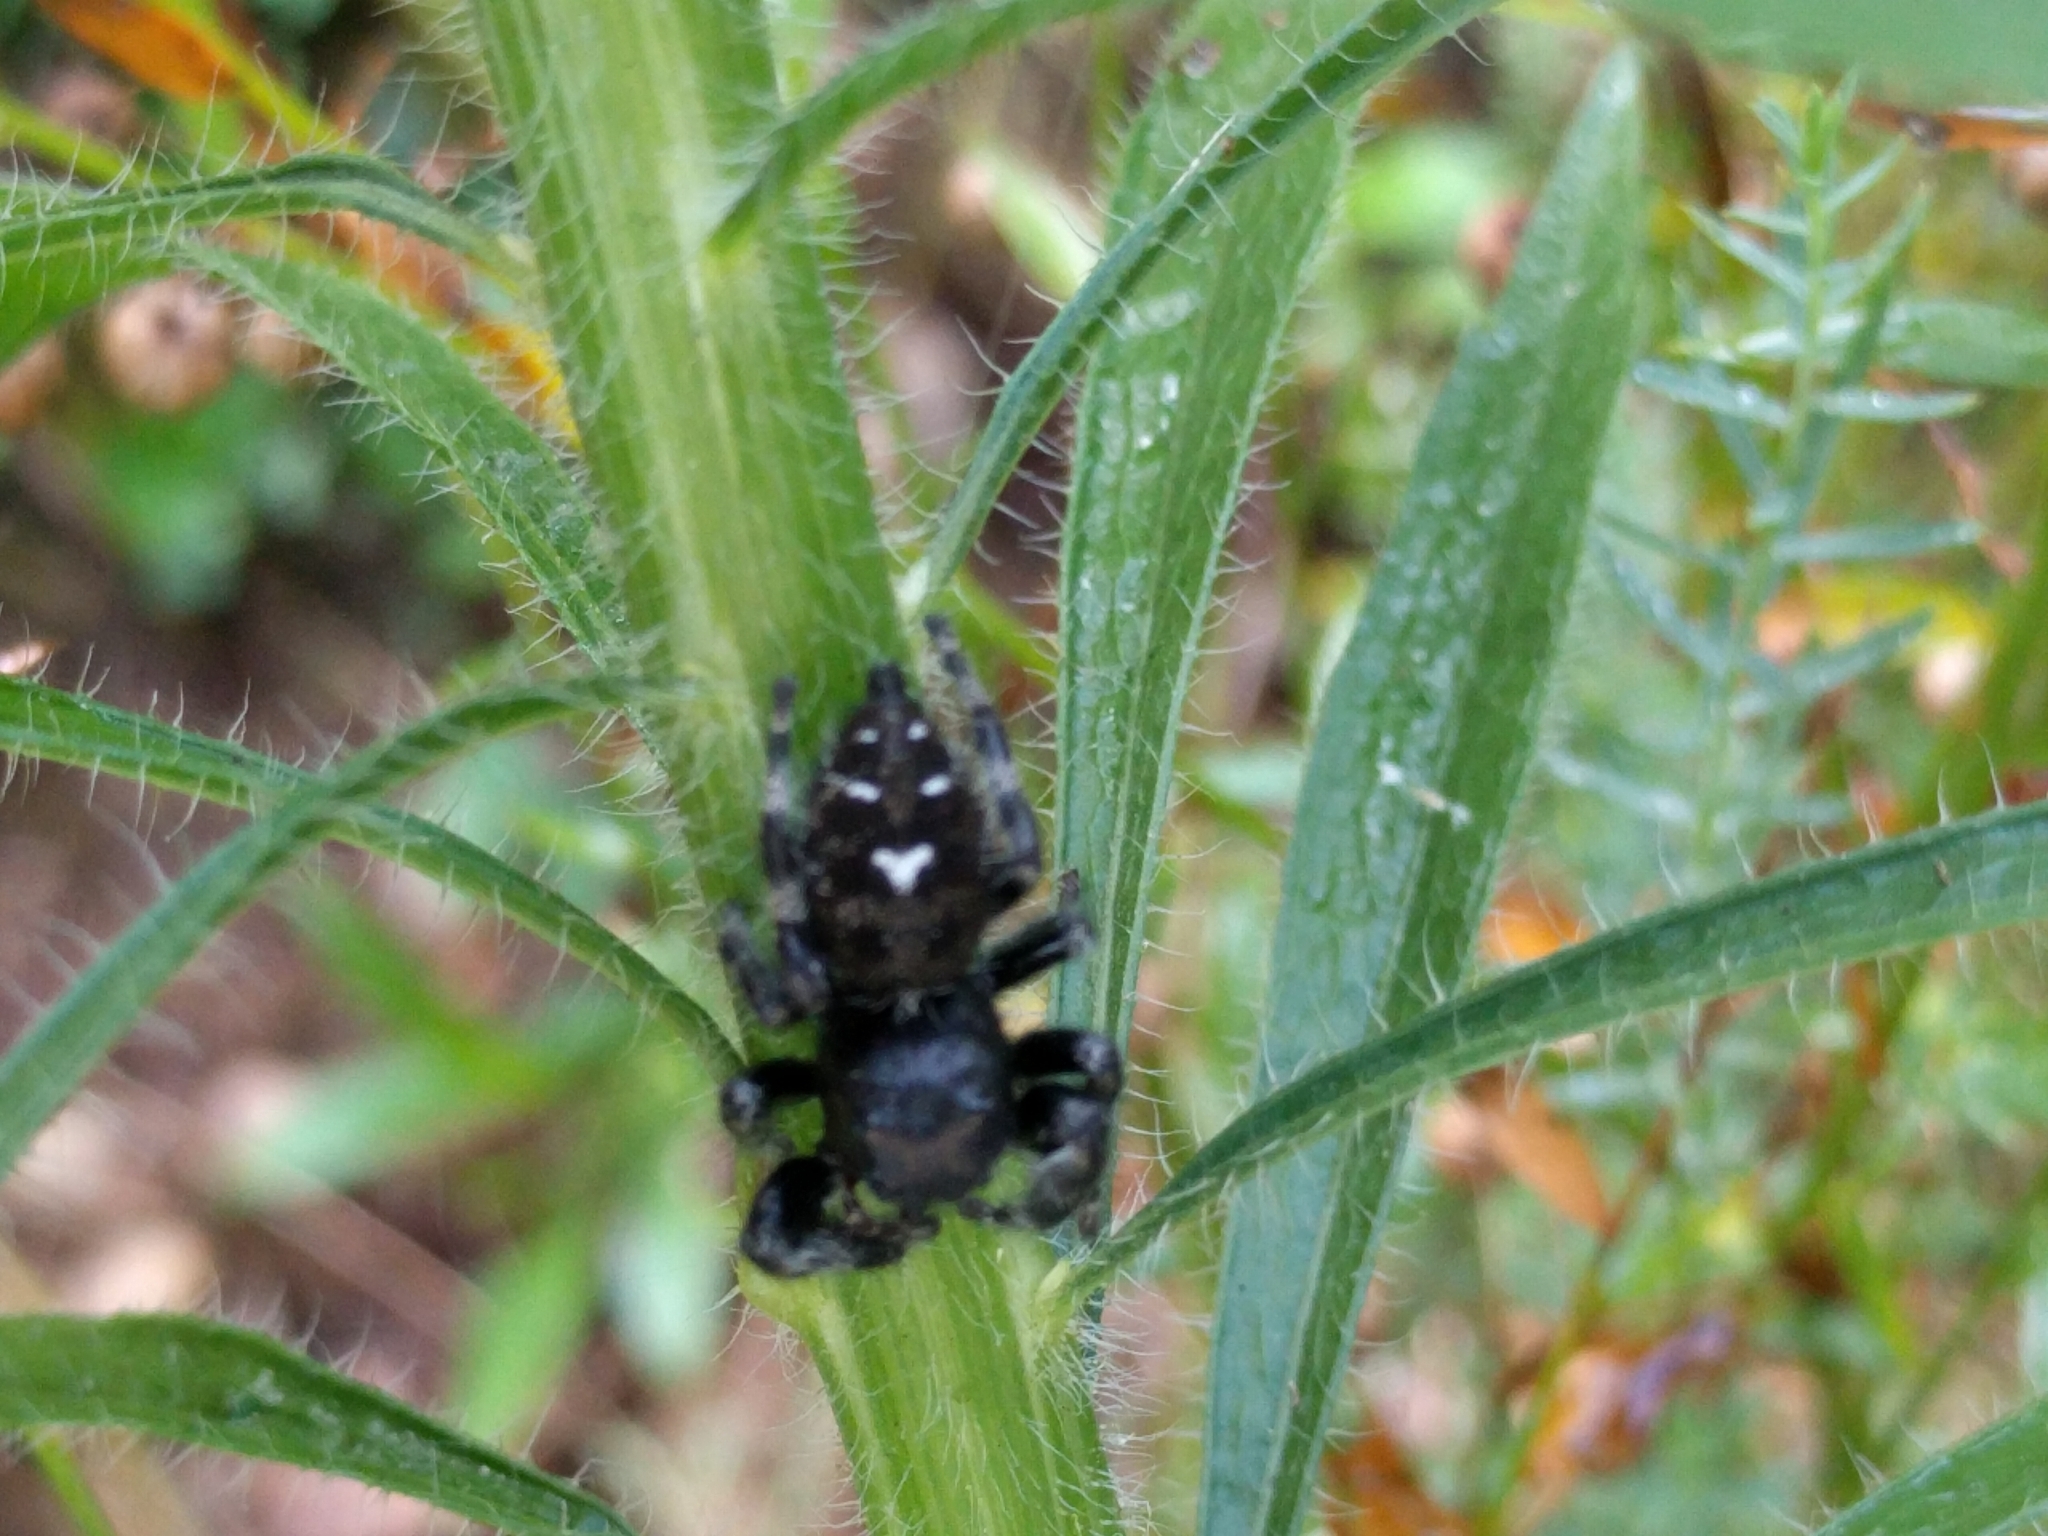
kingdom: Animalia
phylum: Arthropoda
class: Arachnida
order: Araneae
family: Salticidae
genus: Phidippus
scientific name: Phidippus audax
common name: Bold jumper
